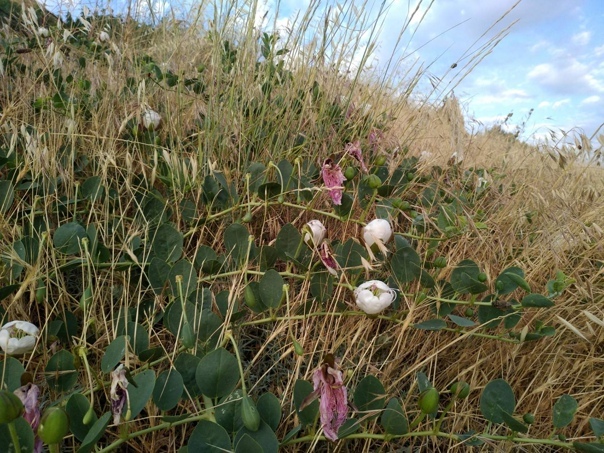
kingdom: Plantae
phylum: Tracheophyta
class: Magnoliopsida
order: Brassicales
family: Capparaceae
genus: Capparis
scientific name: Capparis spinosa
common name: Caper
